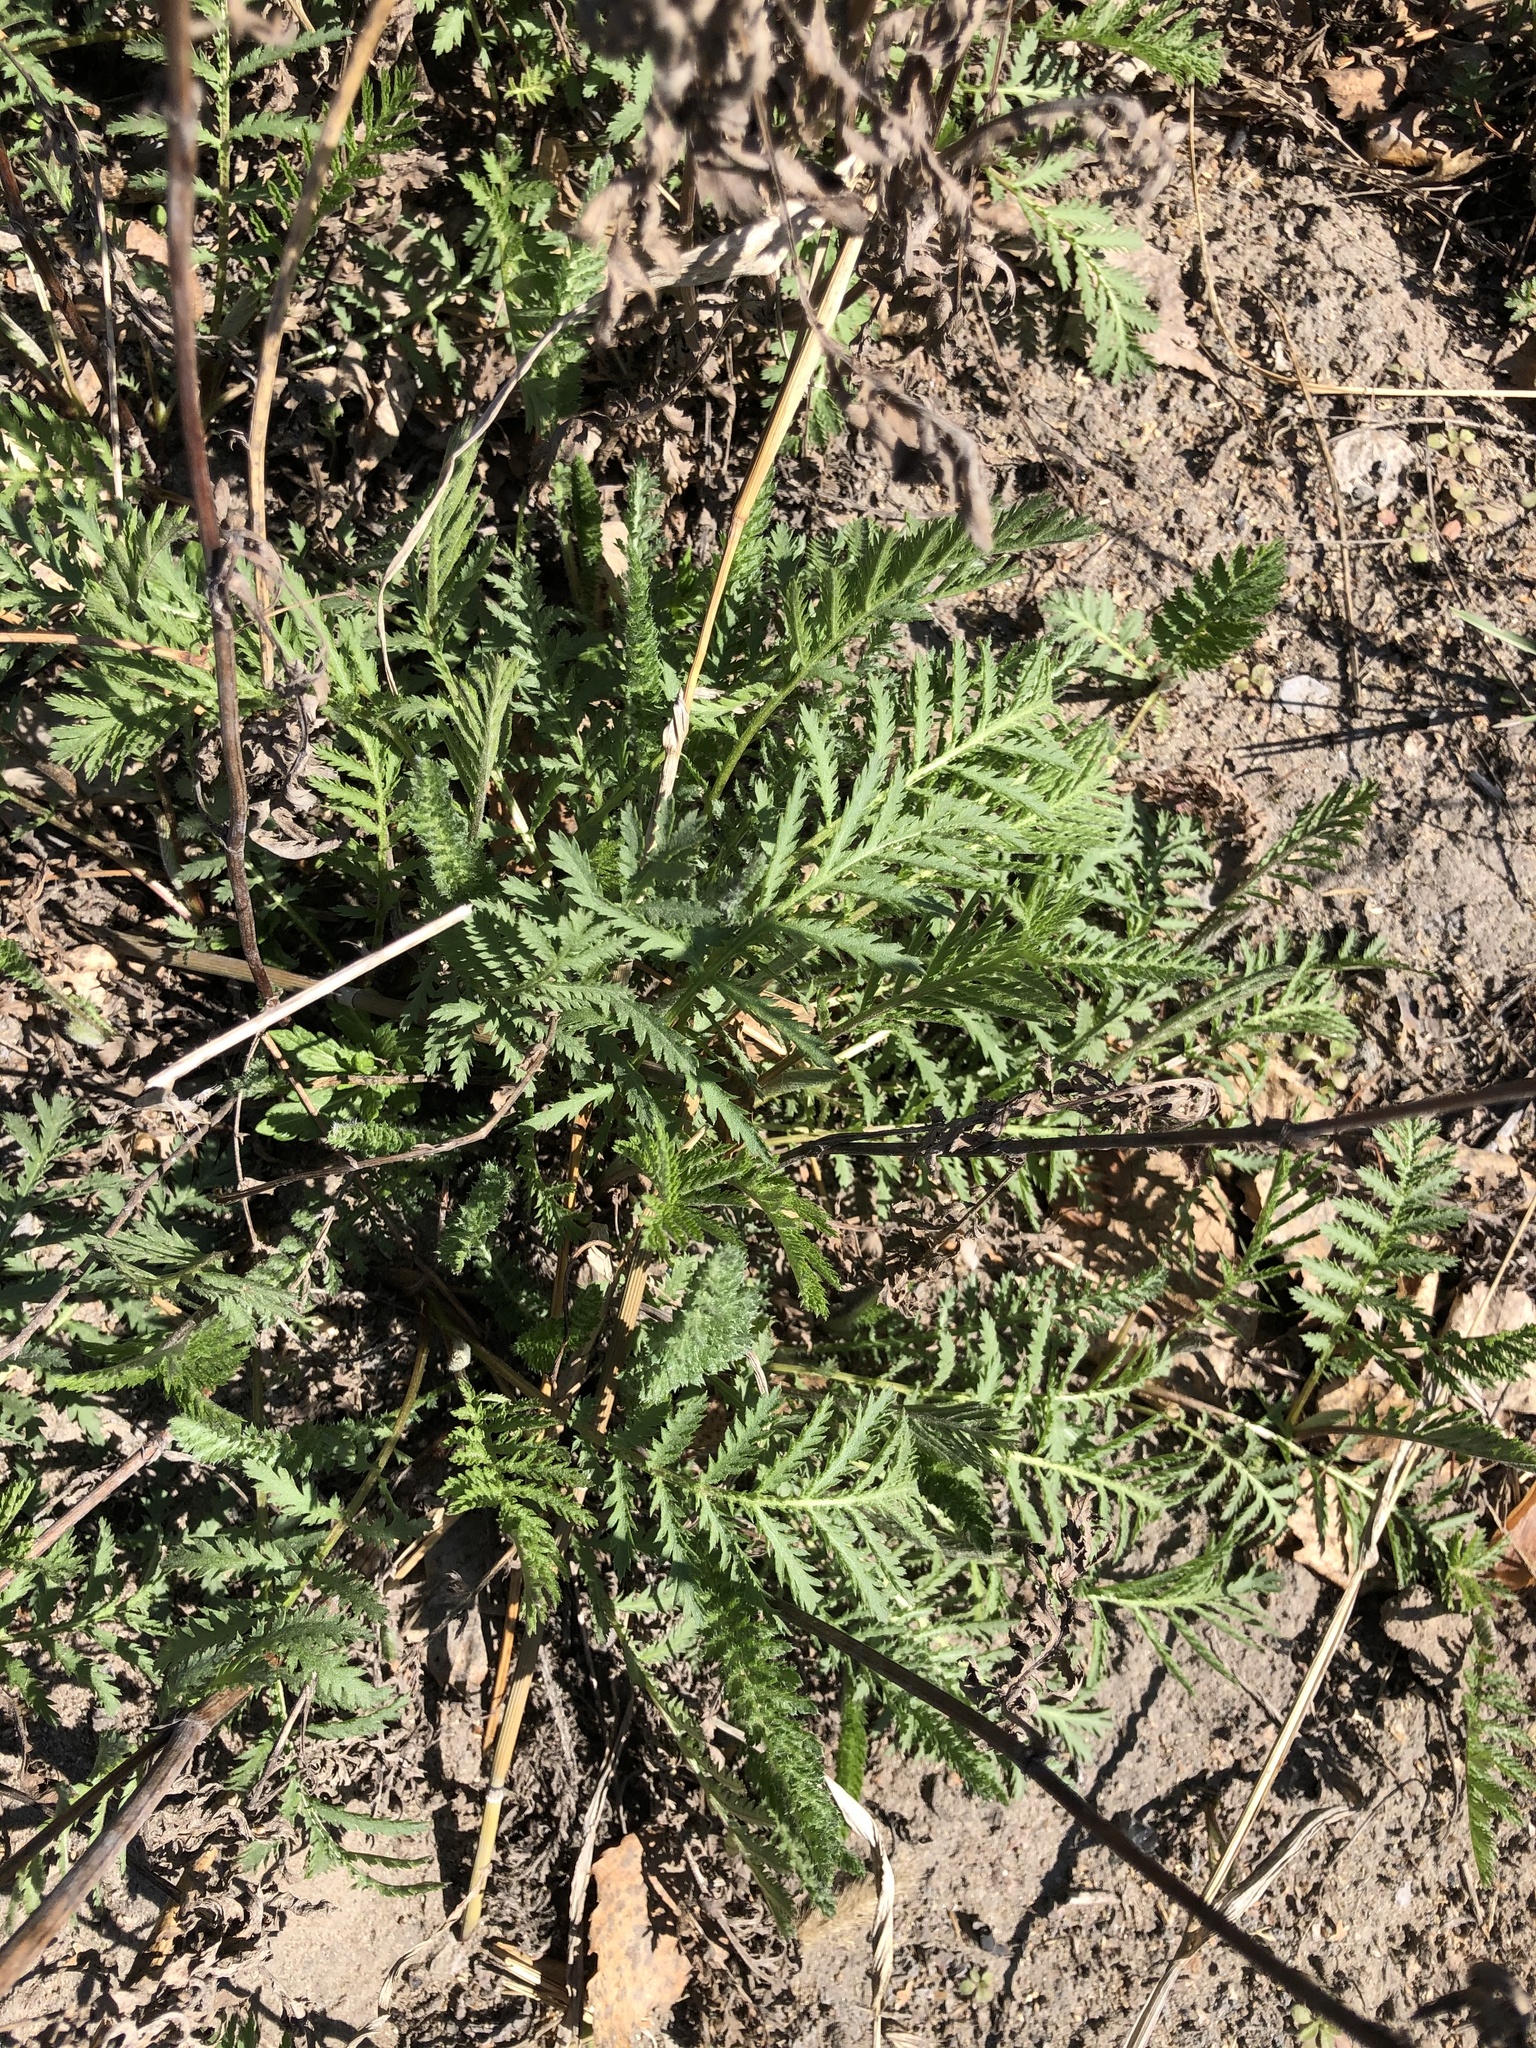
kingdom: Plantae
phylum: Tracheophyta
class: Magnoliopsida
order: Asterales
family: Asteraceae
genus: Tanacetum
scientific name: Tanacetum vulgare
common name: Common tansy
